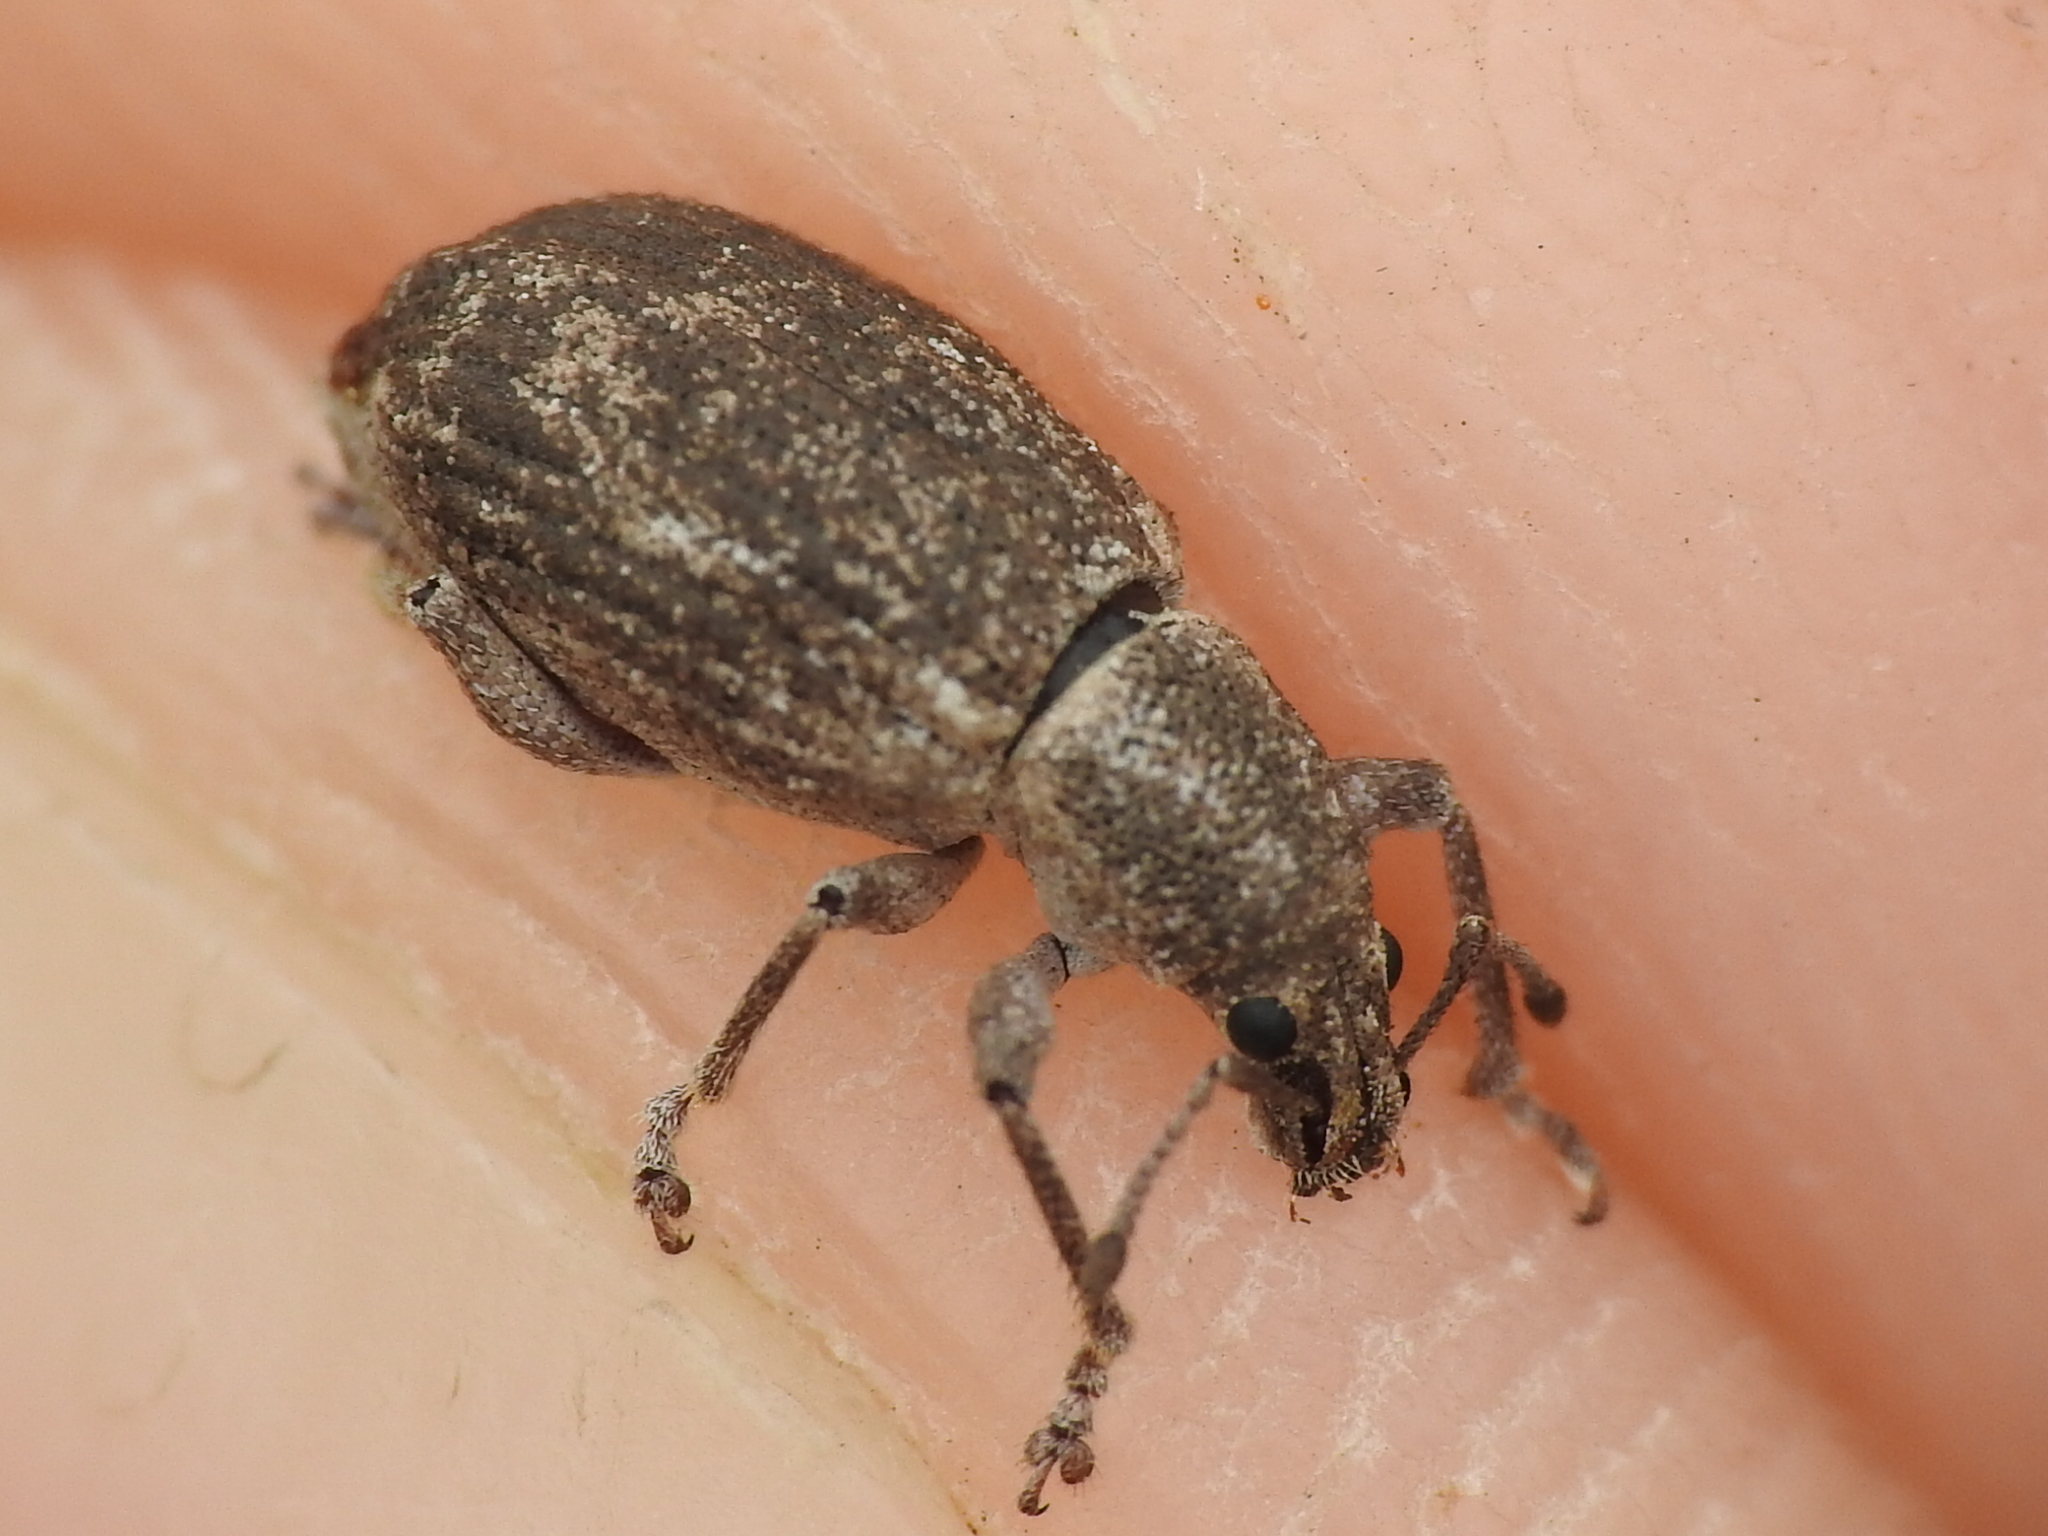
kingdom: Animalia
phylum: Arthropoda
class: Insecta
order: Coleoptera
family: Curculionidae
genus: Achrastenus
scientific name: Achrastenus griseus
